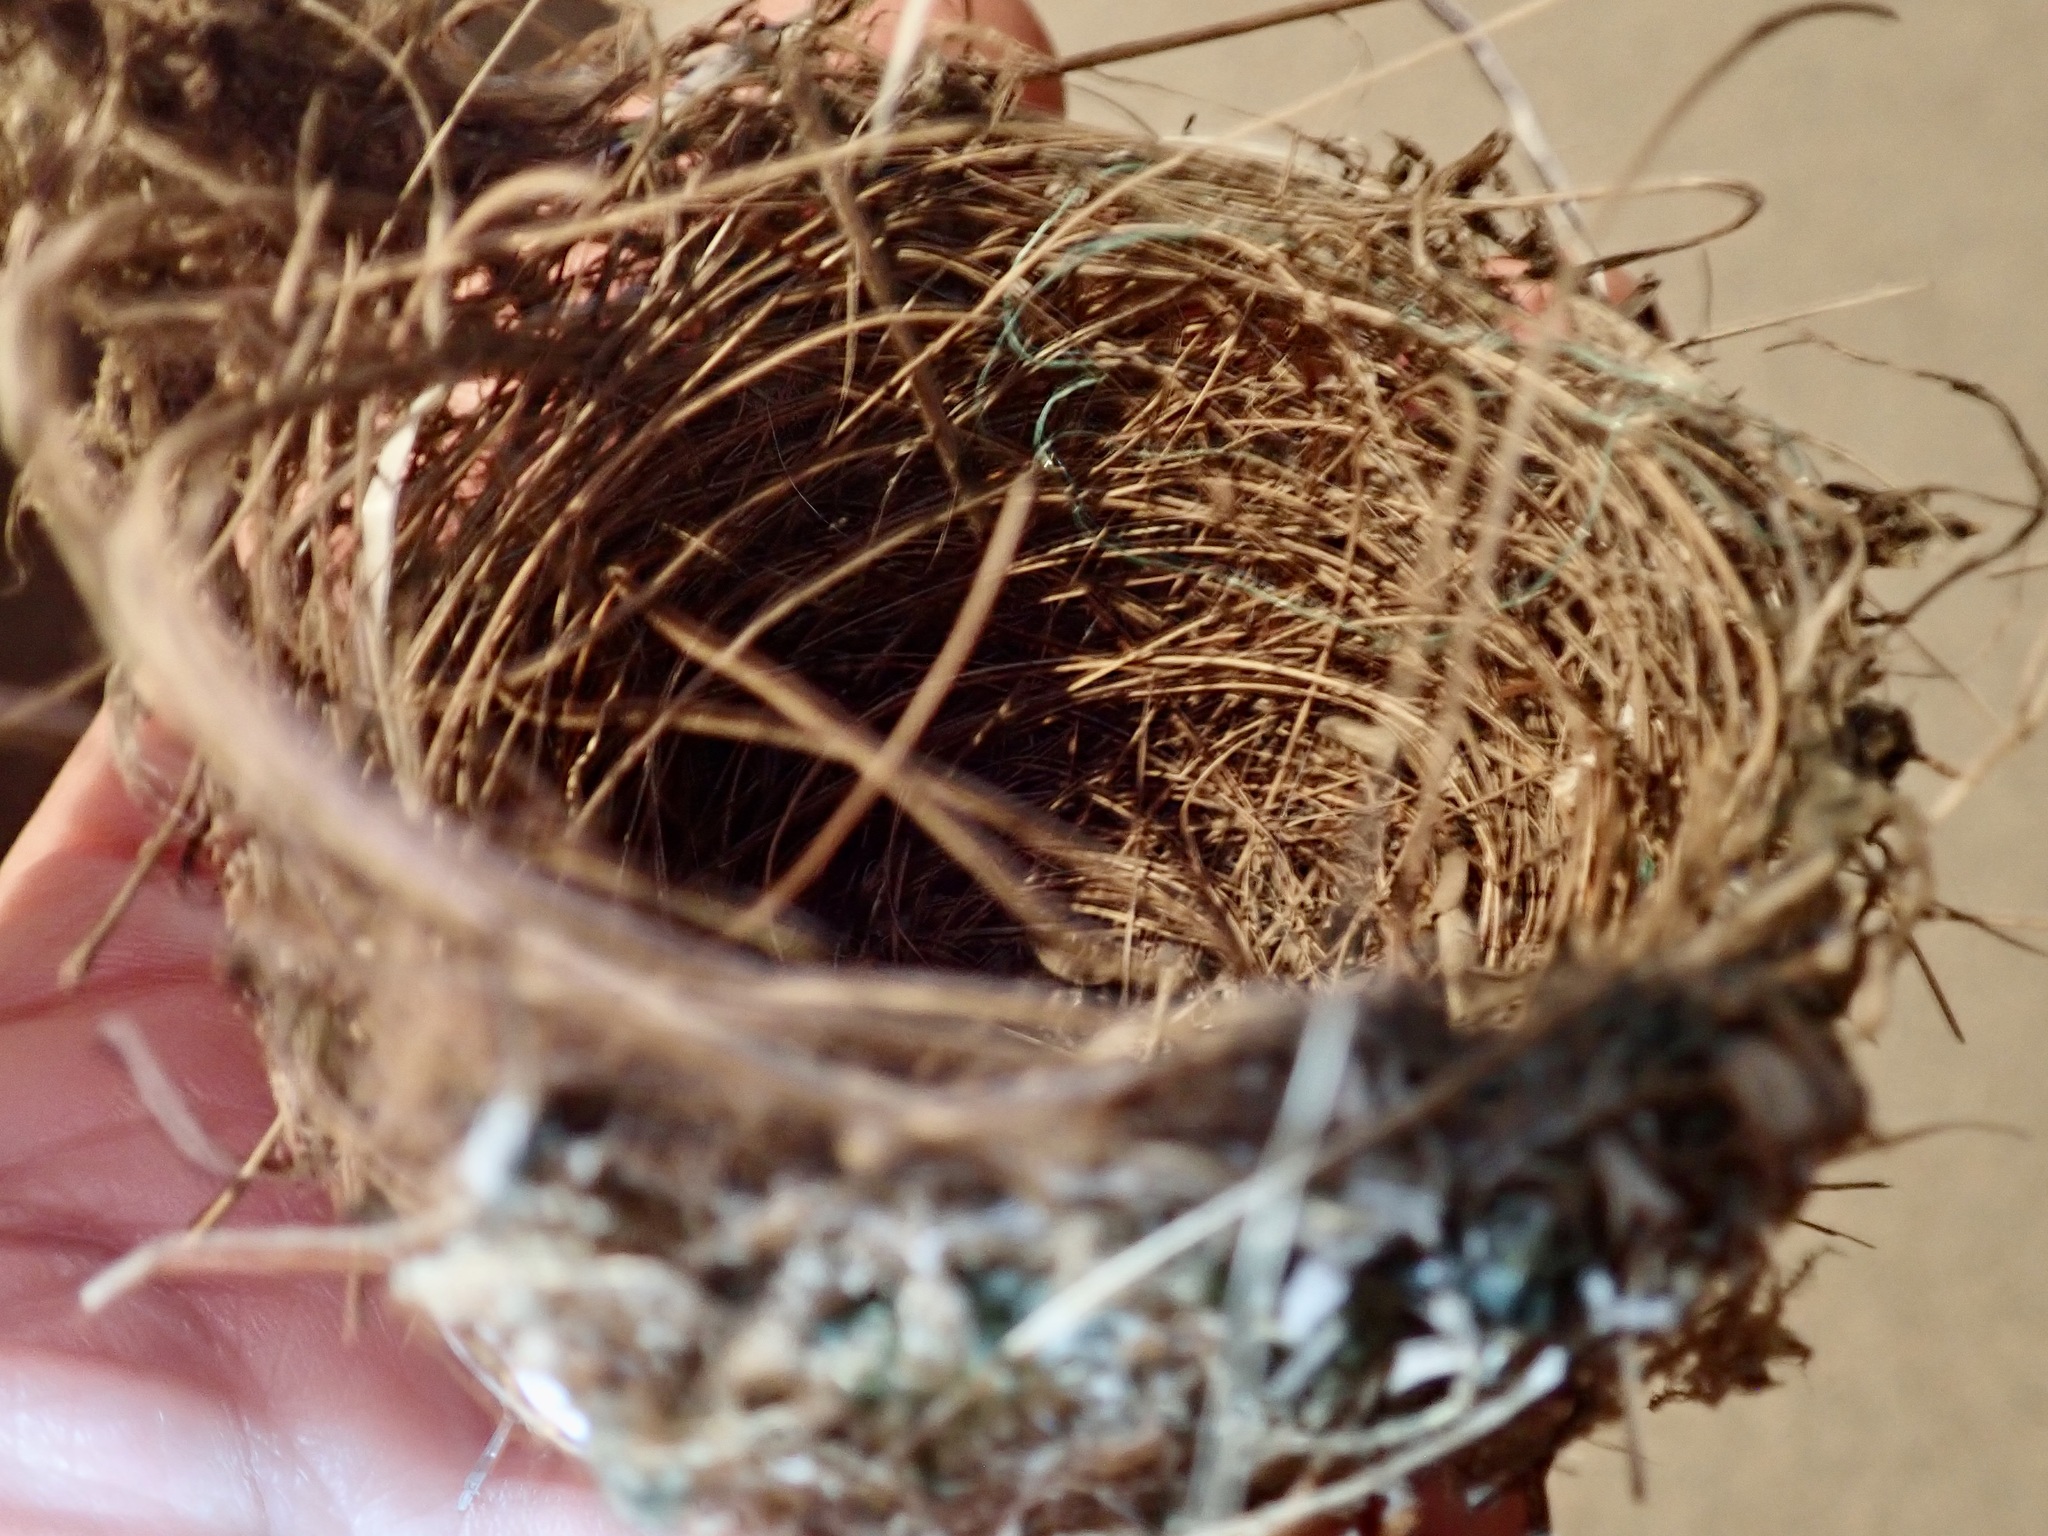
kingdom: Animalia
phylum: Chordata
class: Aves
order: Passeriformes
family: Zosteropidae
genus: Zosterops
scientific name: Zosterops lateralis
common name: Silvereye
